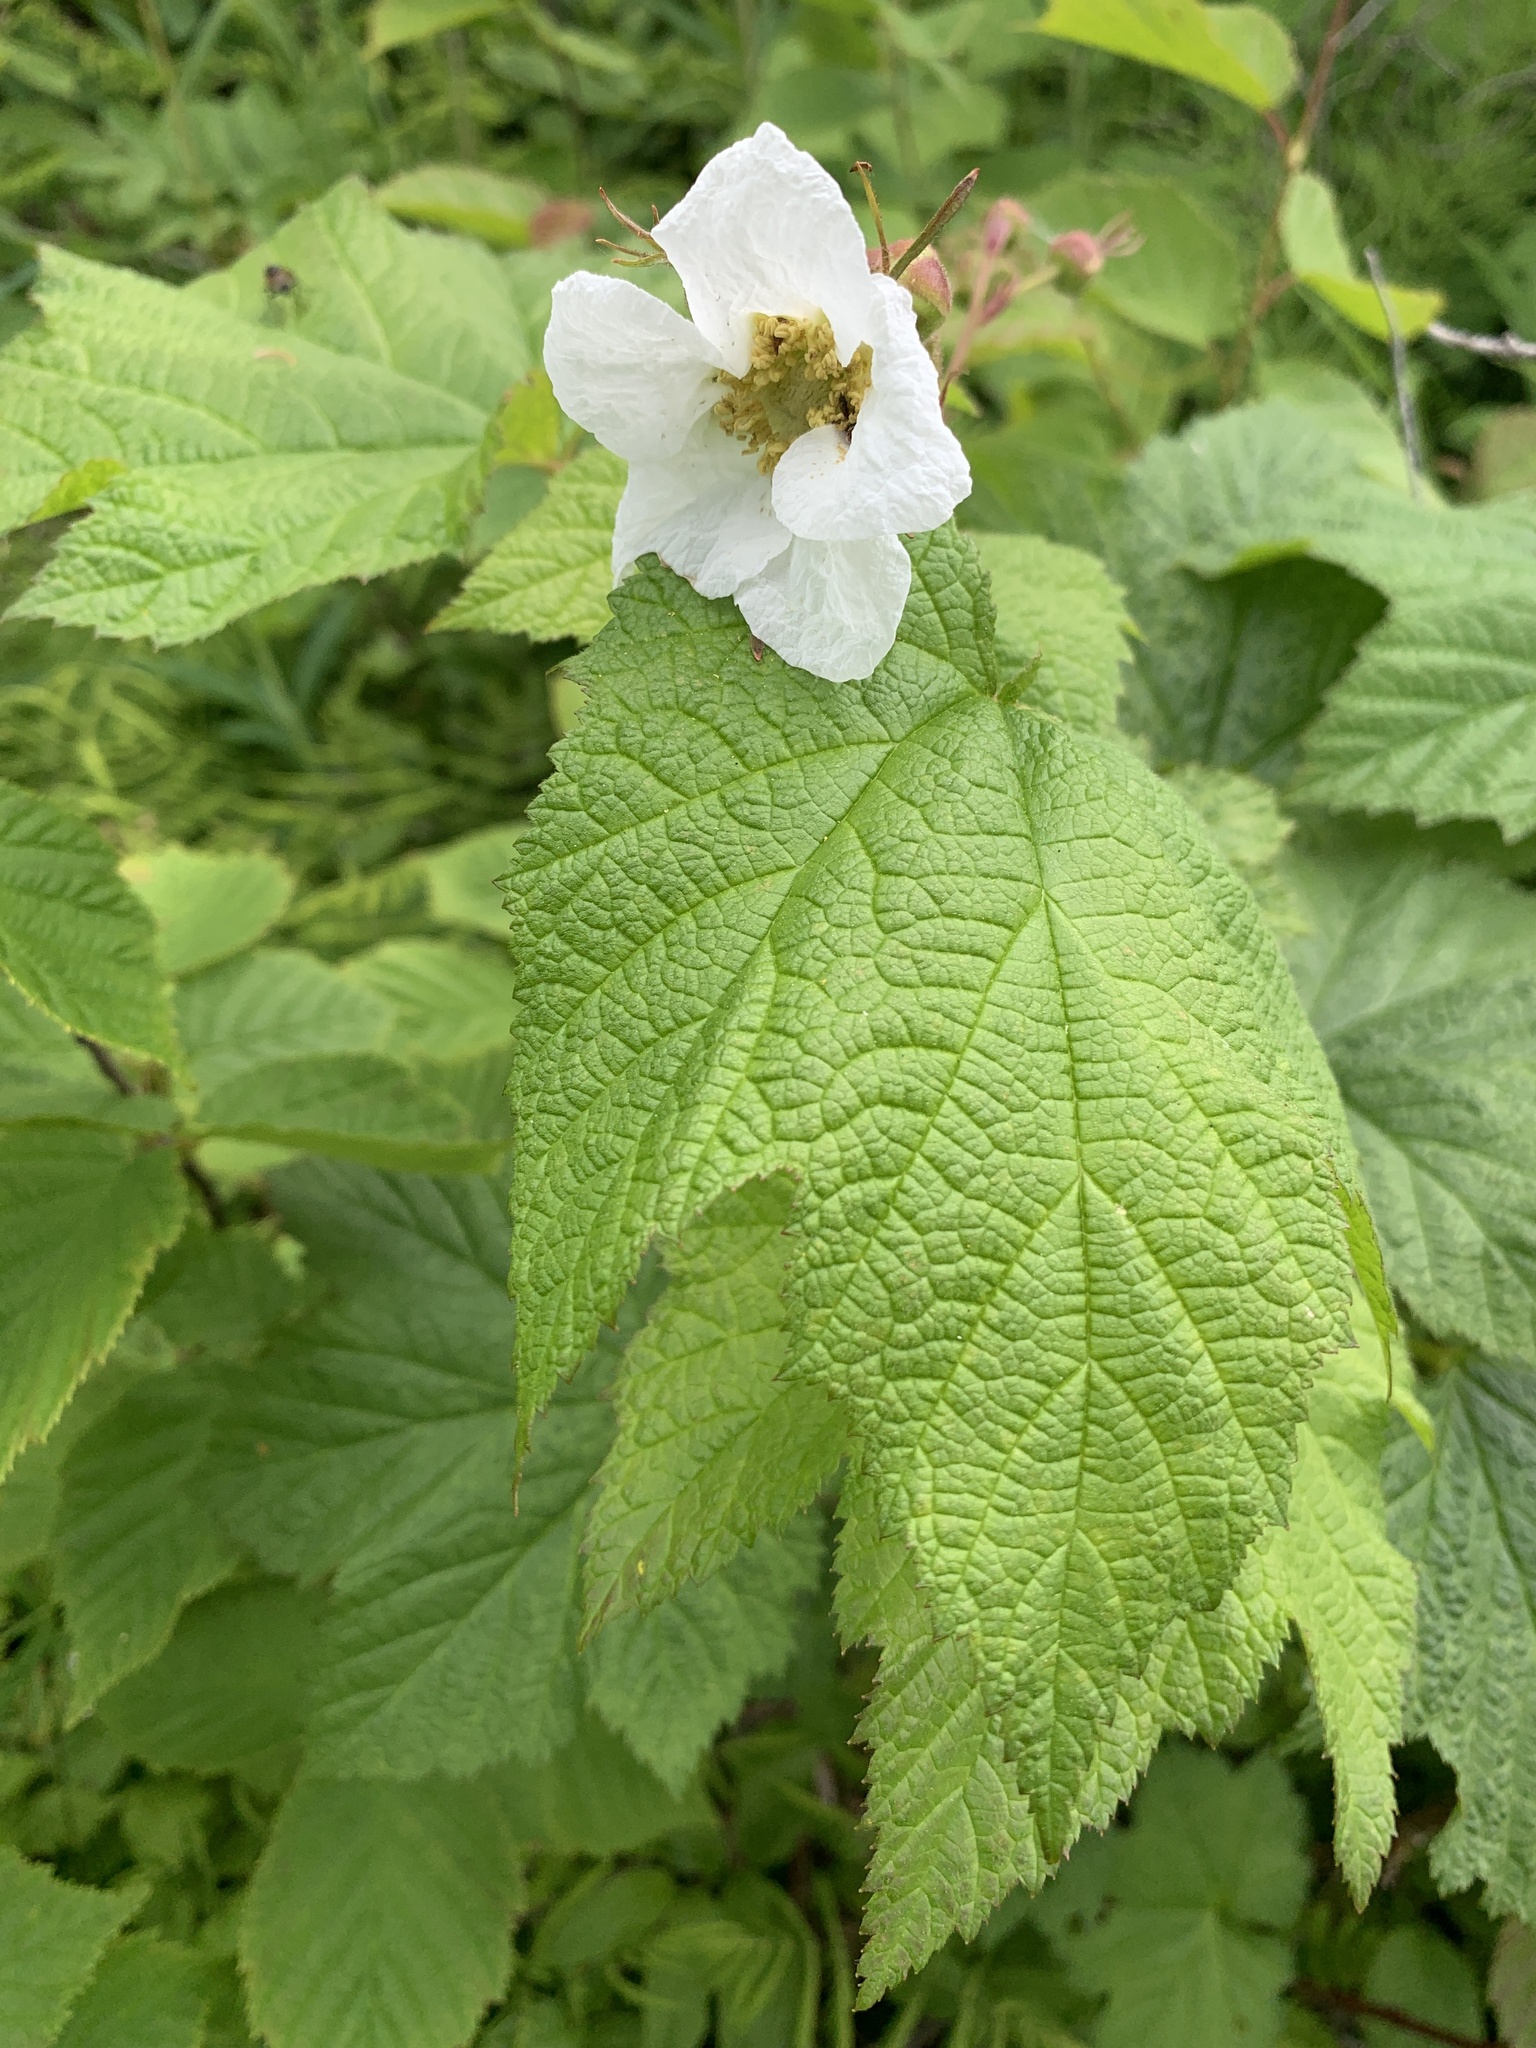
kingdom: Plantae
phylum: Tracheophyta
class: Magnoliopsida
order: Rosales
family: Rosaceae
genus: Rubus
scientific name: Rubus parviflorus
